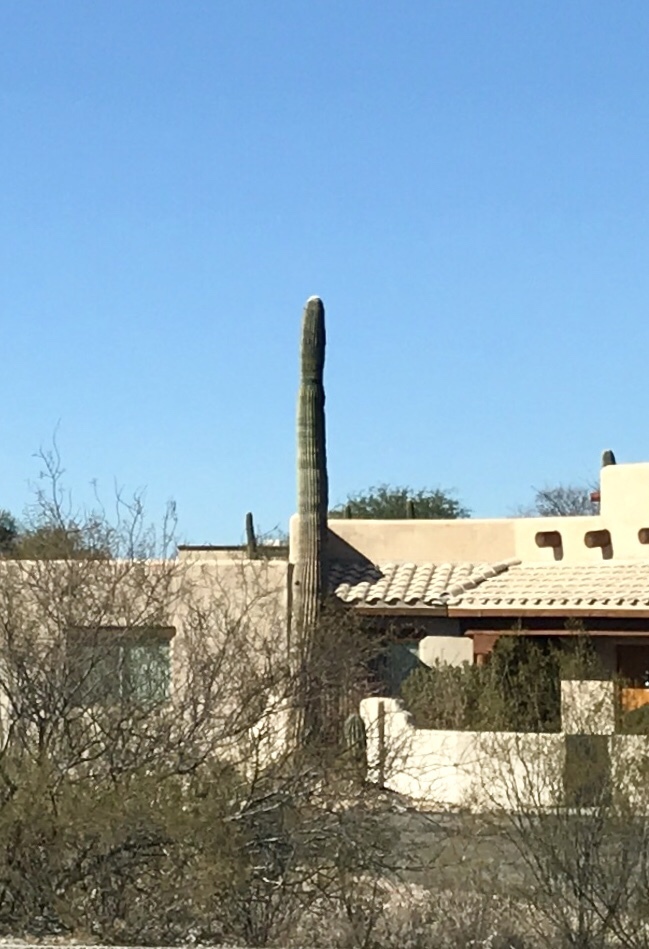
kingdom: Plantae
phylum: Tracheophyta
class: Magnoliopsida
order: Caryophyllales
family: Cactaceae
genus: Carnegiea
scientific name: Carnegiea gigantea
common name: Saguaro
